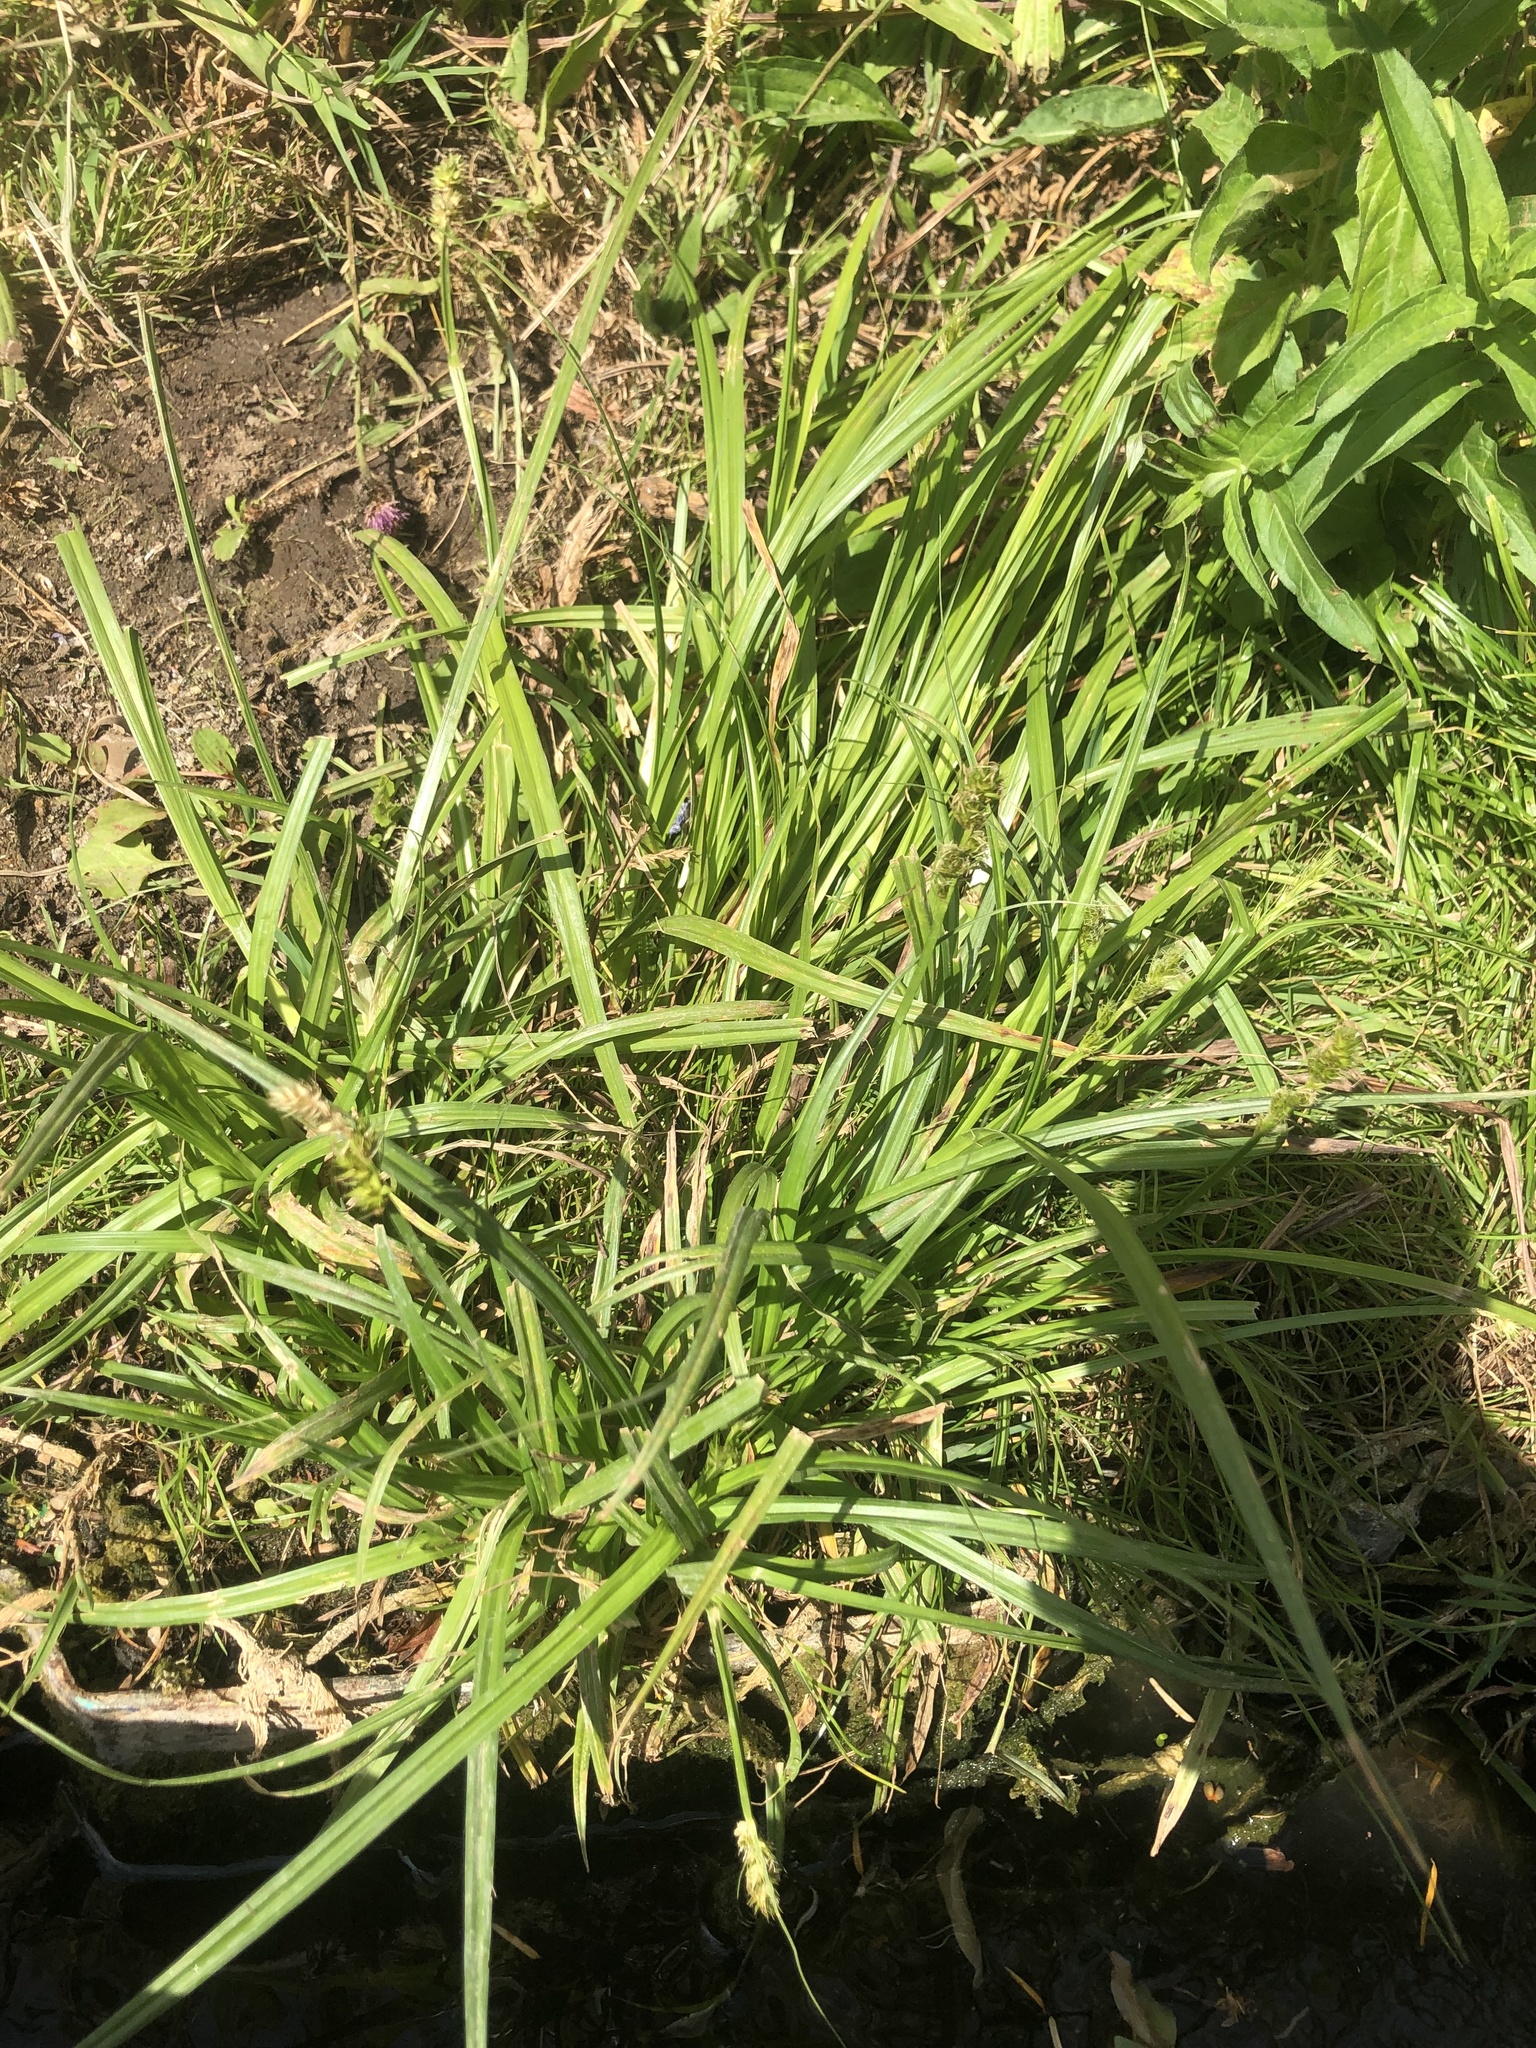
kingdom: Plantae
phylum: Tracheophyta
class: Liliopsida
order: Poales
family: Cyperaceae
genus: Carex
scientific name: Carex otrubae
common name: False fox-sedge
